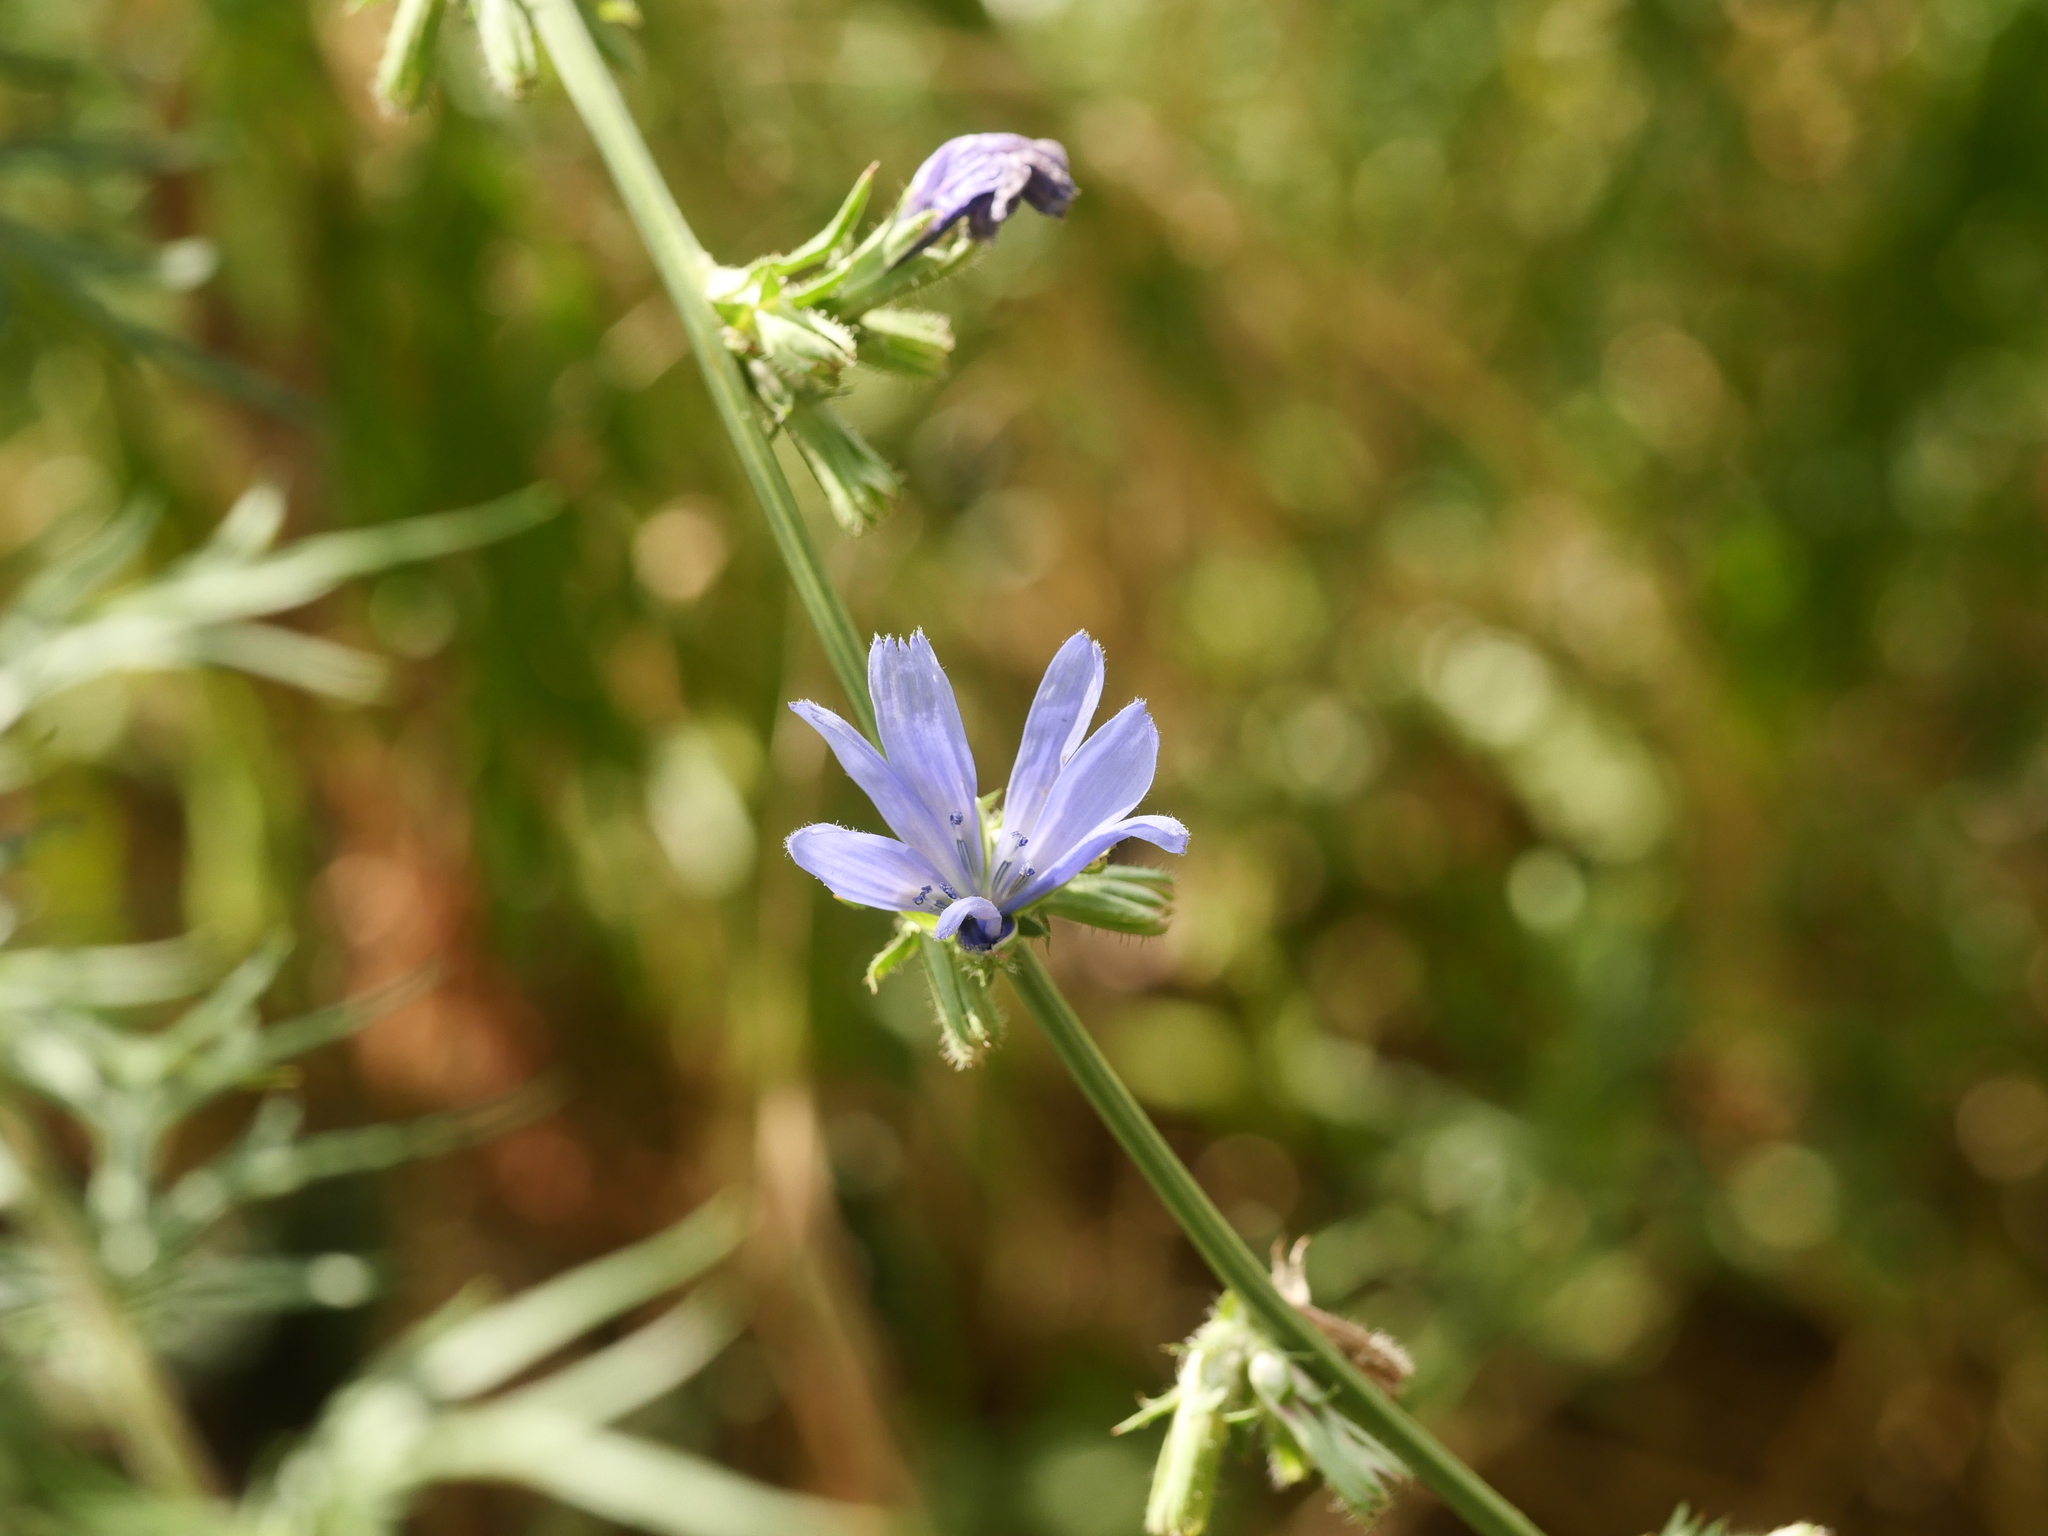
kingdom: Plantae
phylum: Tracheophyta
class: Magnoliopsida
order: Asterales
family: Asteraceae
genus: Cichorium
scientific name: Cichorium intybus
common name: Chicory
